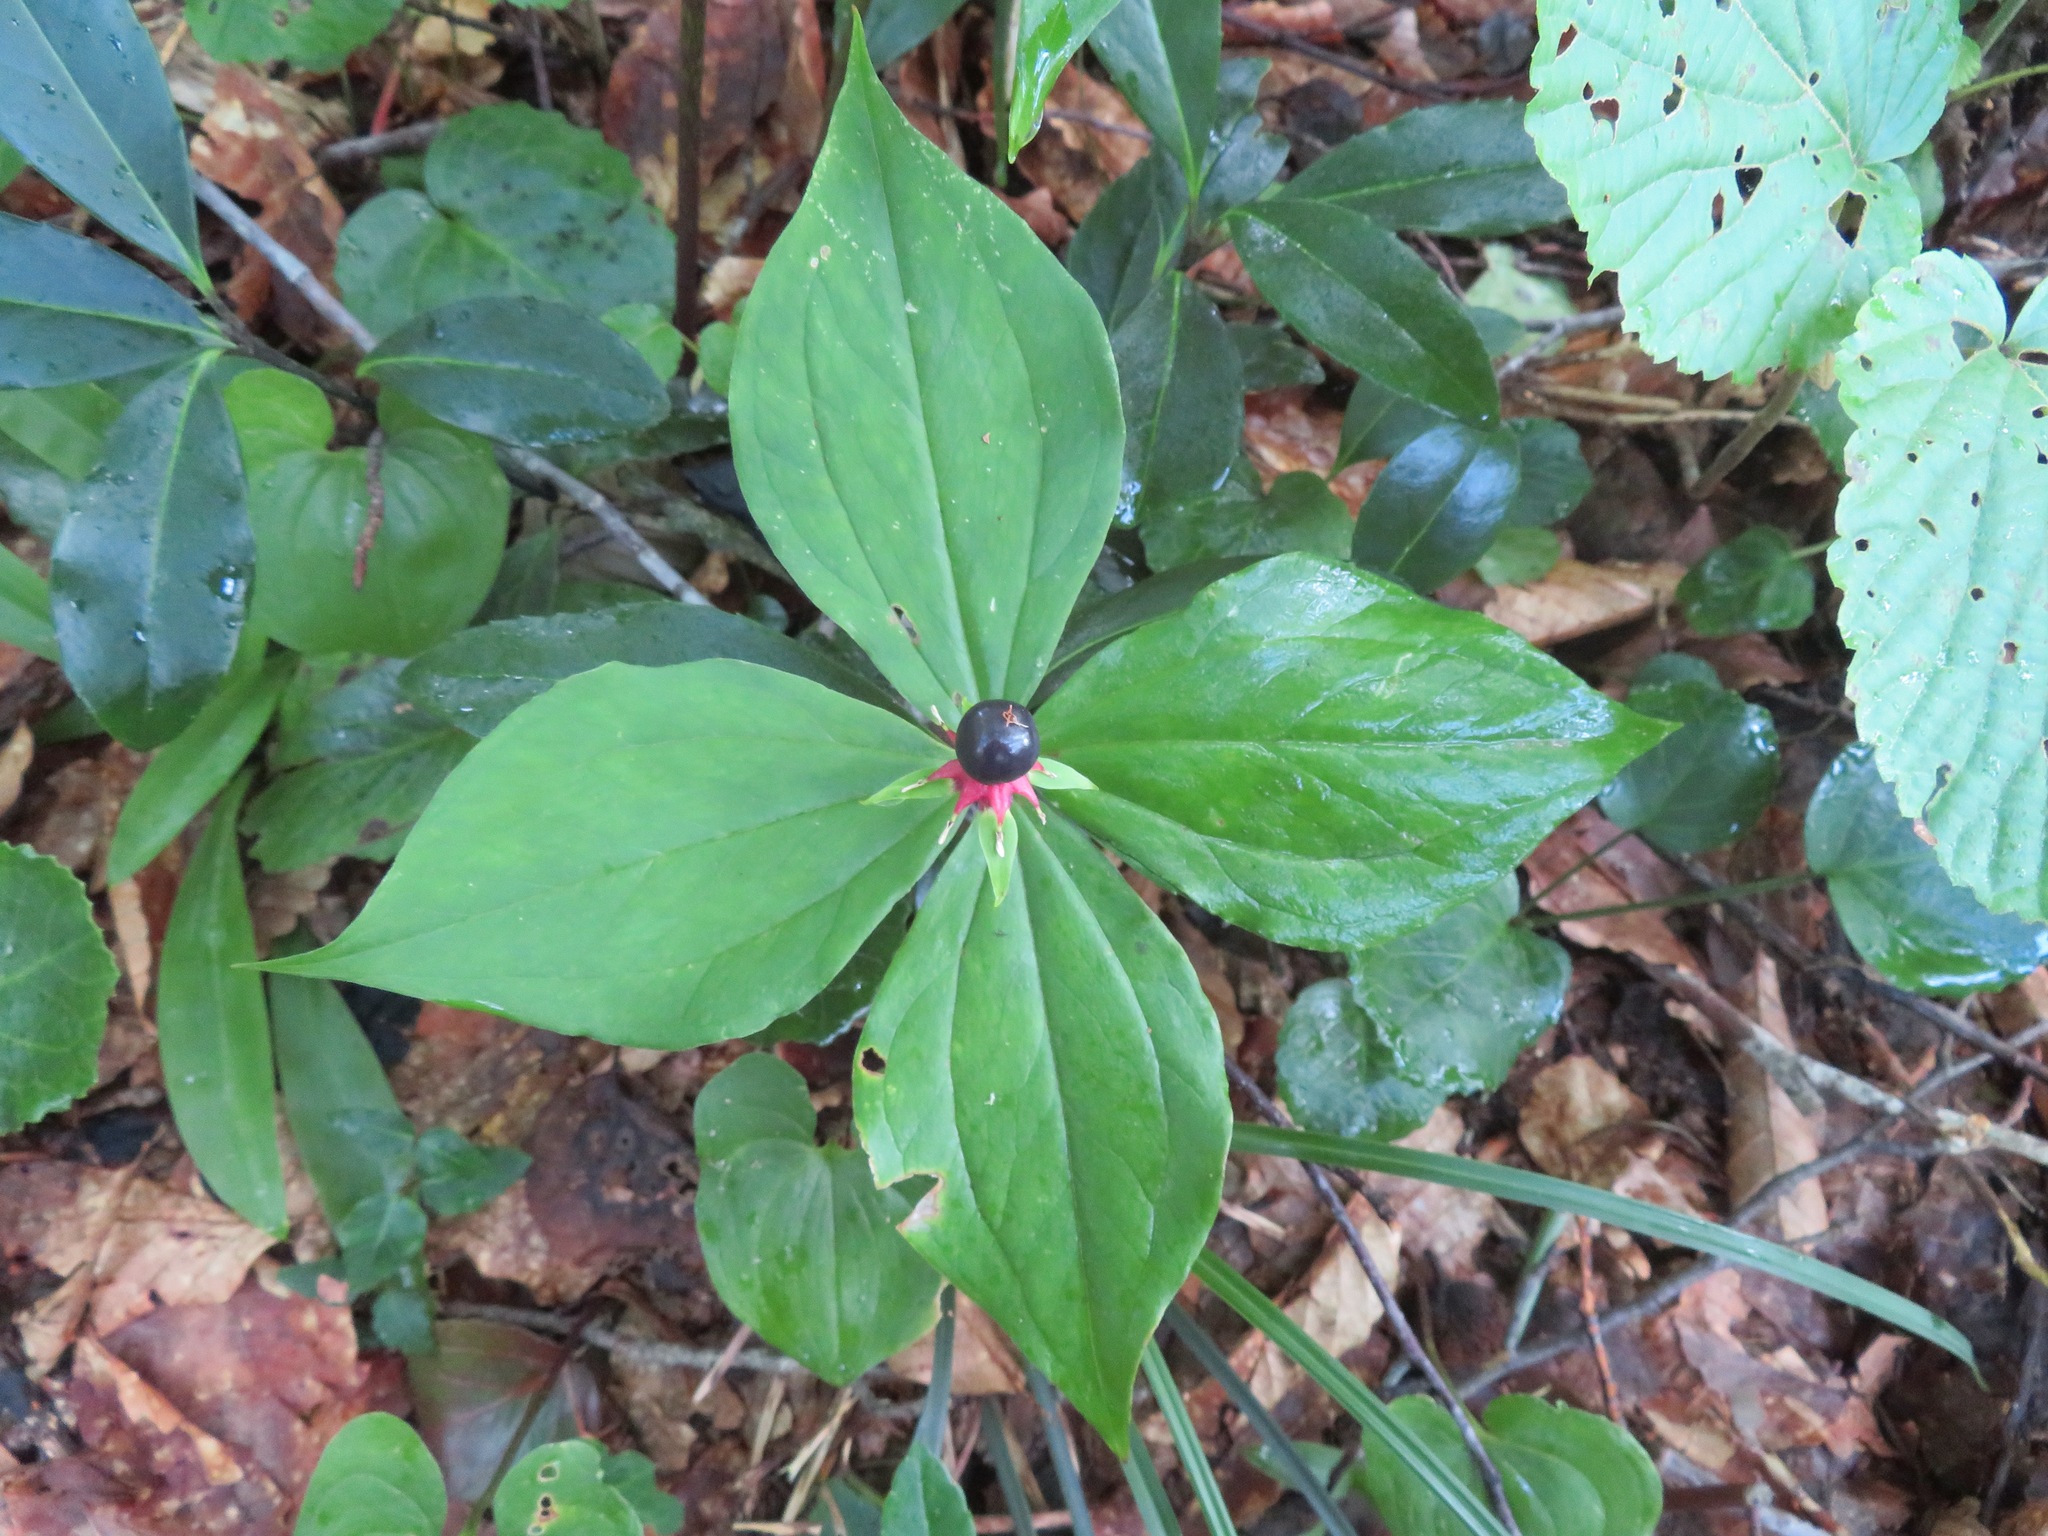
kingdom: Plantae
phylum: Tracheophyta
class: Liliopsida
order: Liliales
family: Melanthiaceae
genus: Paris
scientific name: Paris tetraphylla
